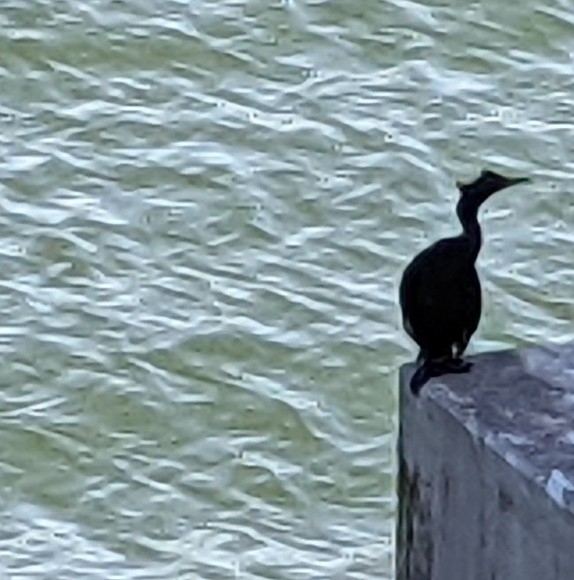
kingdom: Animalia
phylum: Chordata
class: Aves
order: Suliformes
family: Phalacrocoracidae
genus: Phalacrocorax
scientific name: Phalacrocorax pelagicus
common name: Pelagic cormorant
